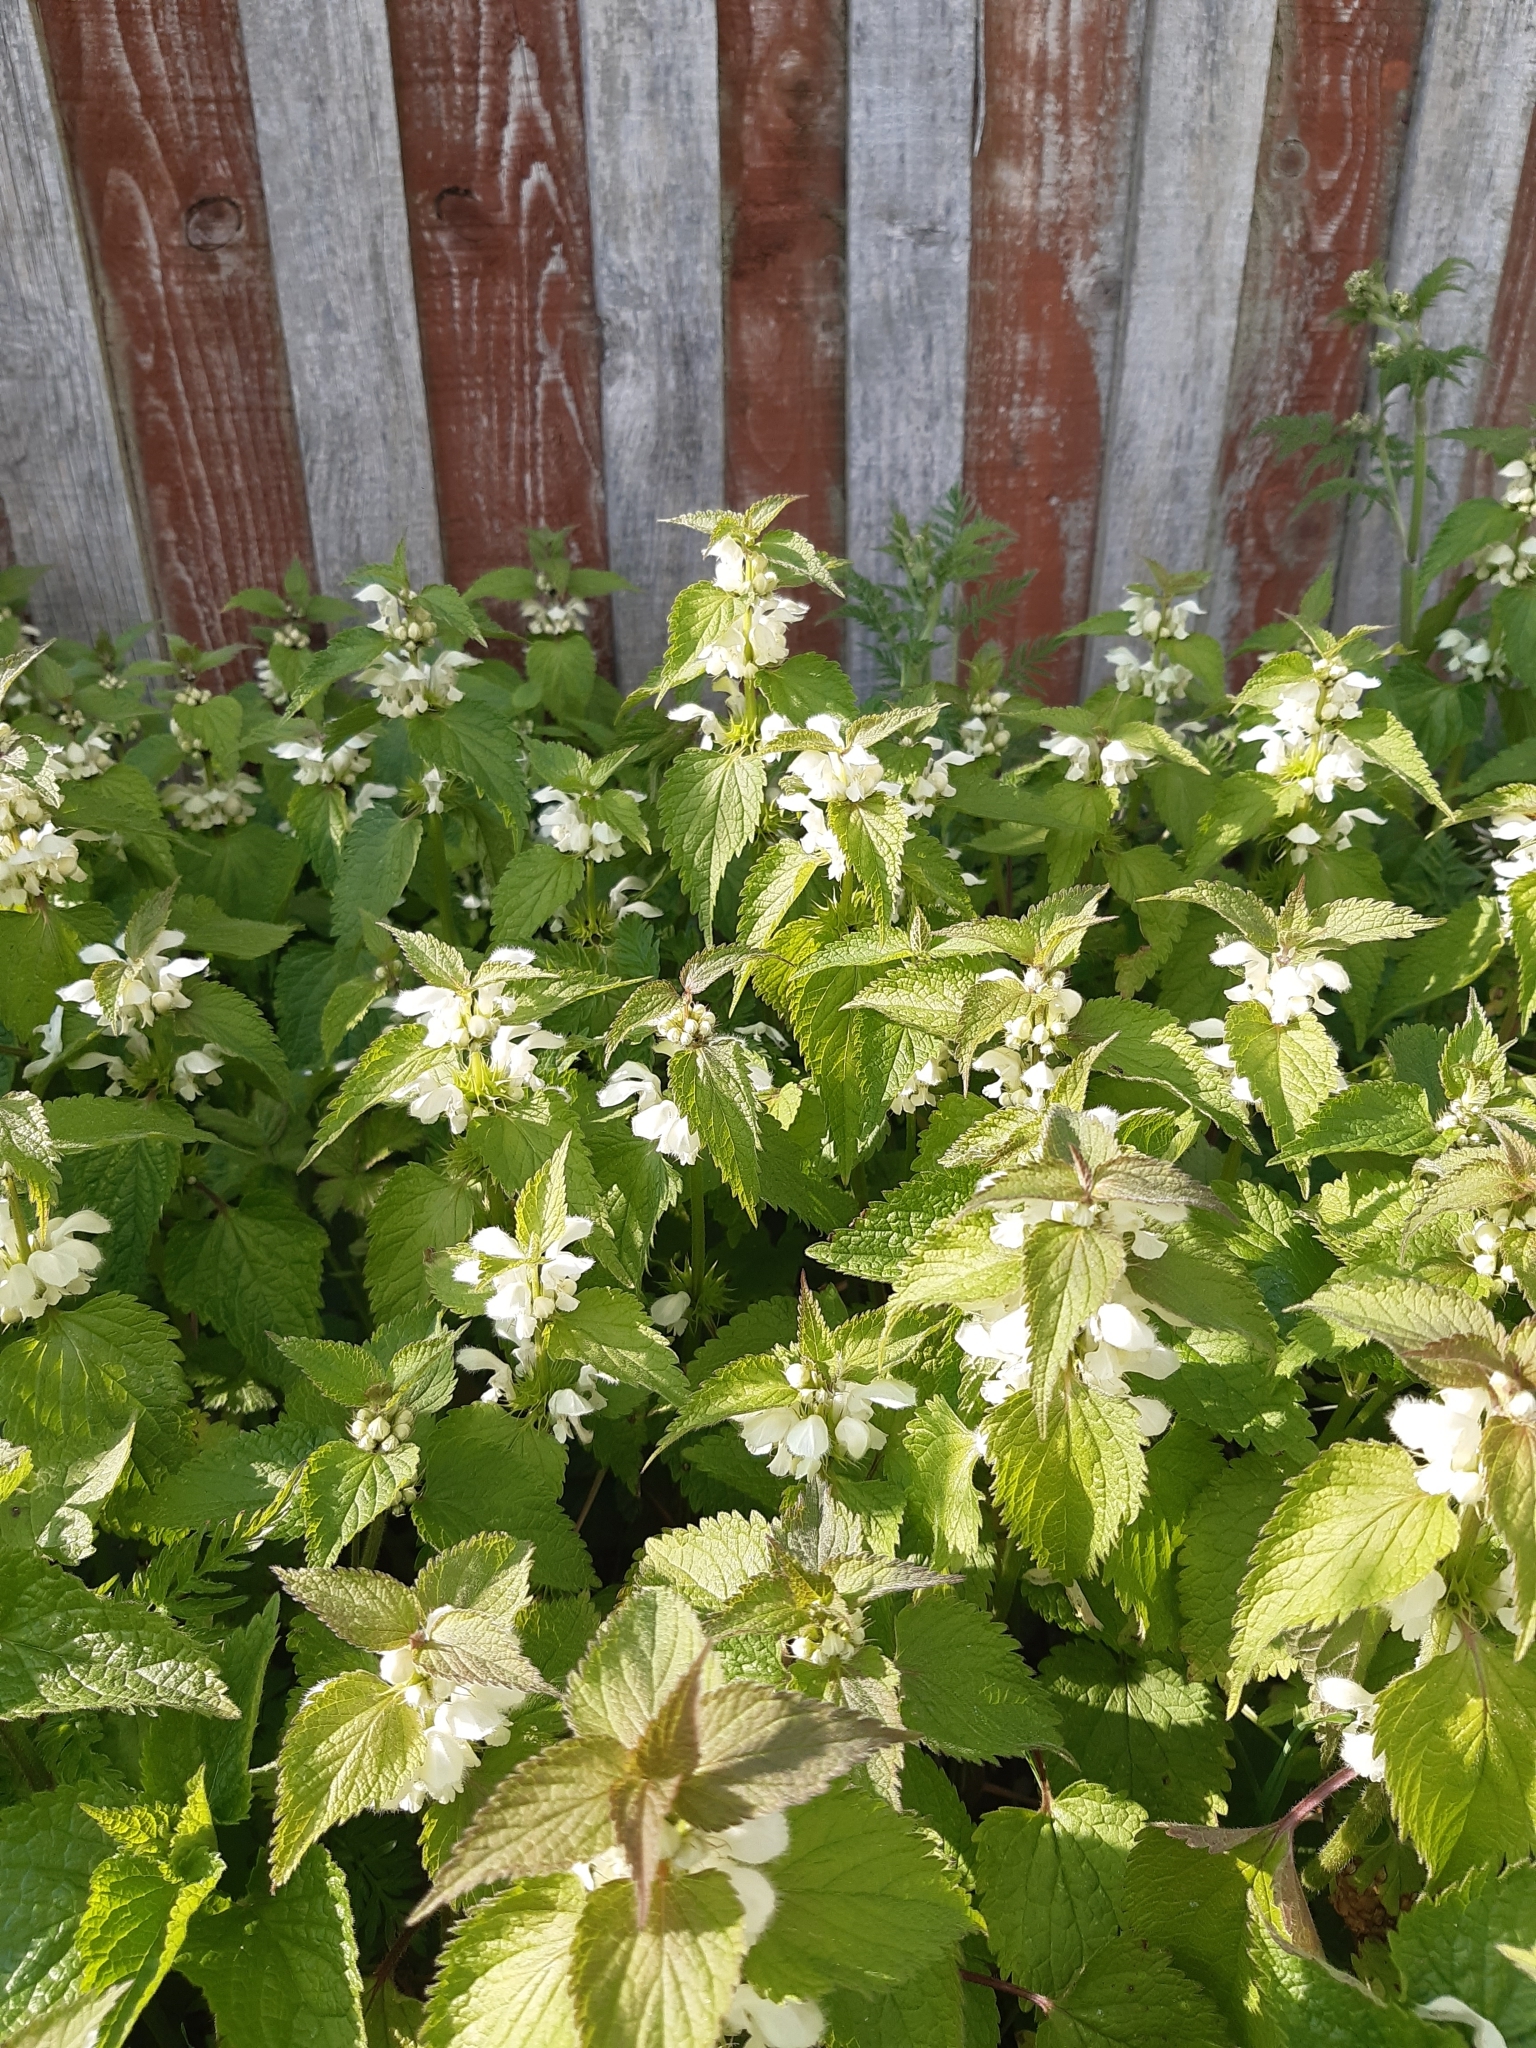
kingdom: Plantae
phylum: Tracheophyta
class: Magnoliopsida
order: Lamiales
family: Lamiaceae
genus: Lamium
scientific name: Lamium album
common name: White dead-nettle
